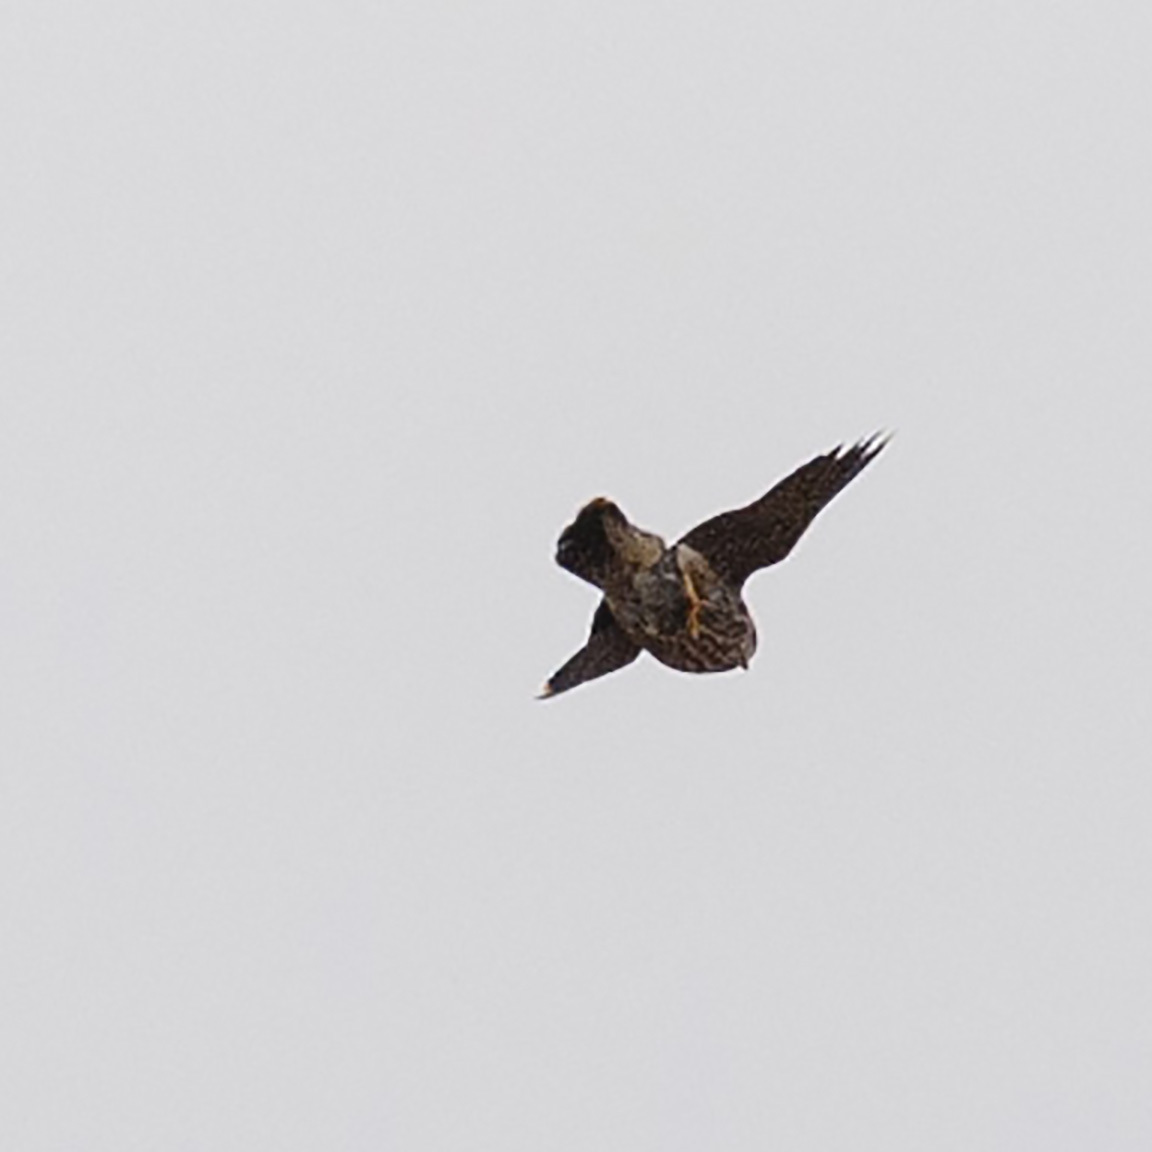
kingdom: Animalia
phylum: Chordata
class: Aves
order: Falconiformes
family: Falconidae
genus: Falco
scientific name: Falco columbarius
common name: Merlin
